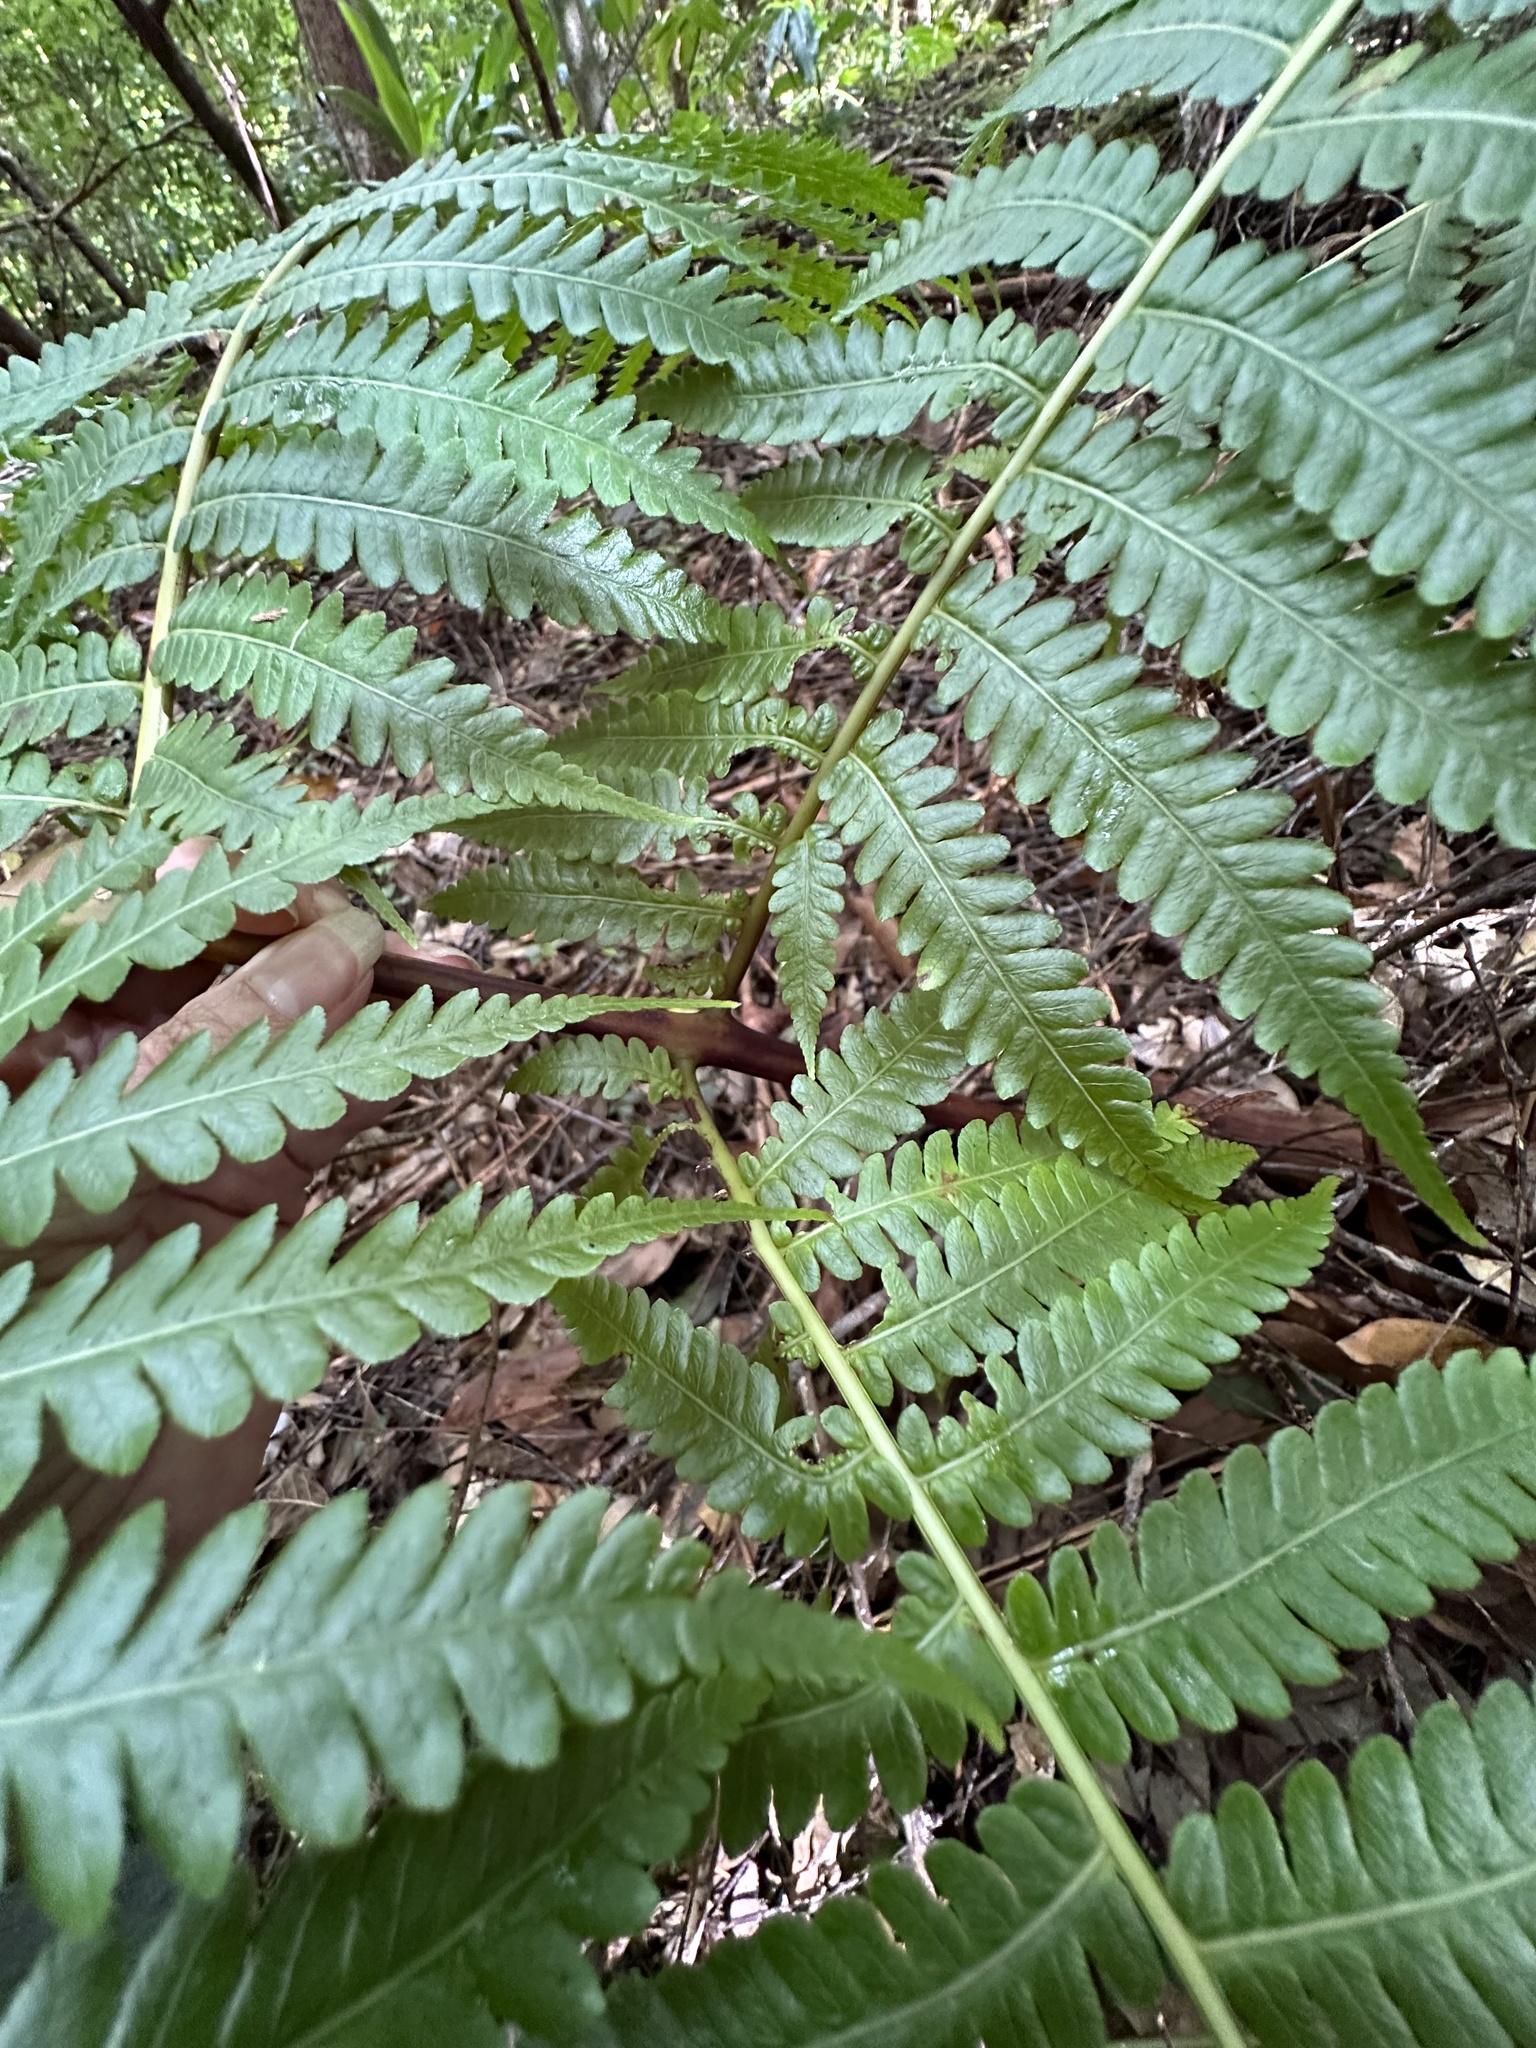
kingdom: Plantae
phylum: Tracheophyta
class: Polypodiopsida
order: Cyatheales
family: Cibotiaceae
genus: Cibotium
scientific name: Cibotium chamissoi
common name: Hawaiian tree fern
